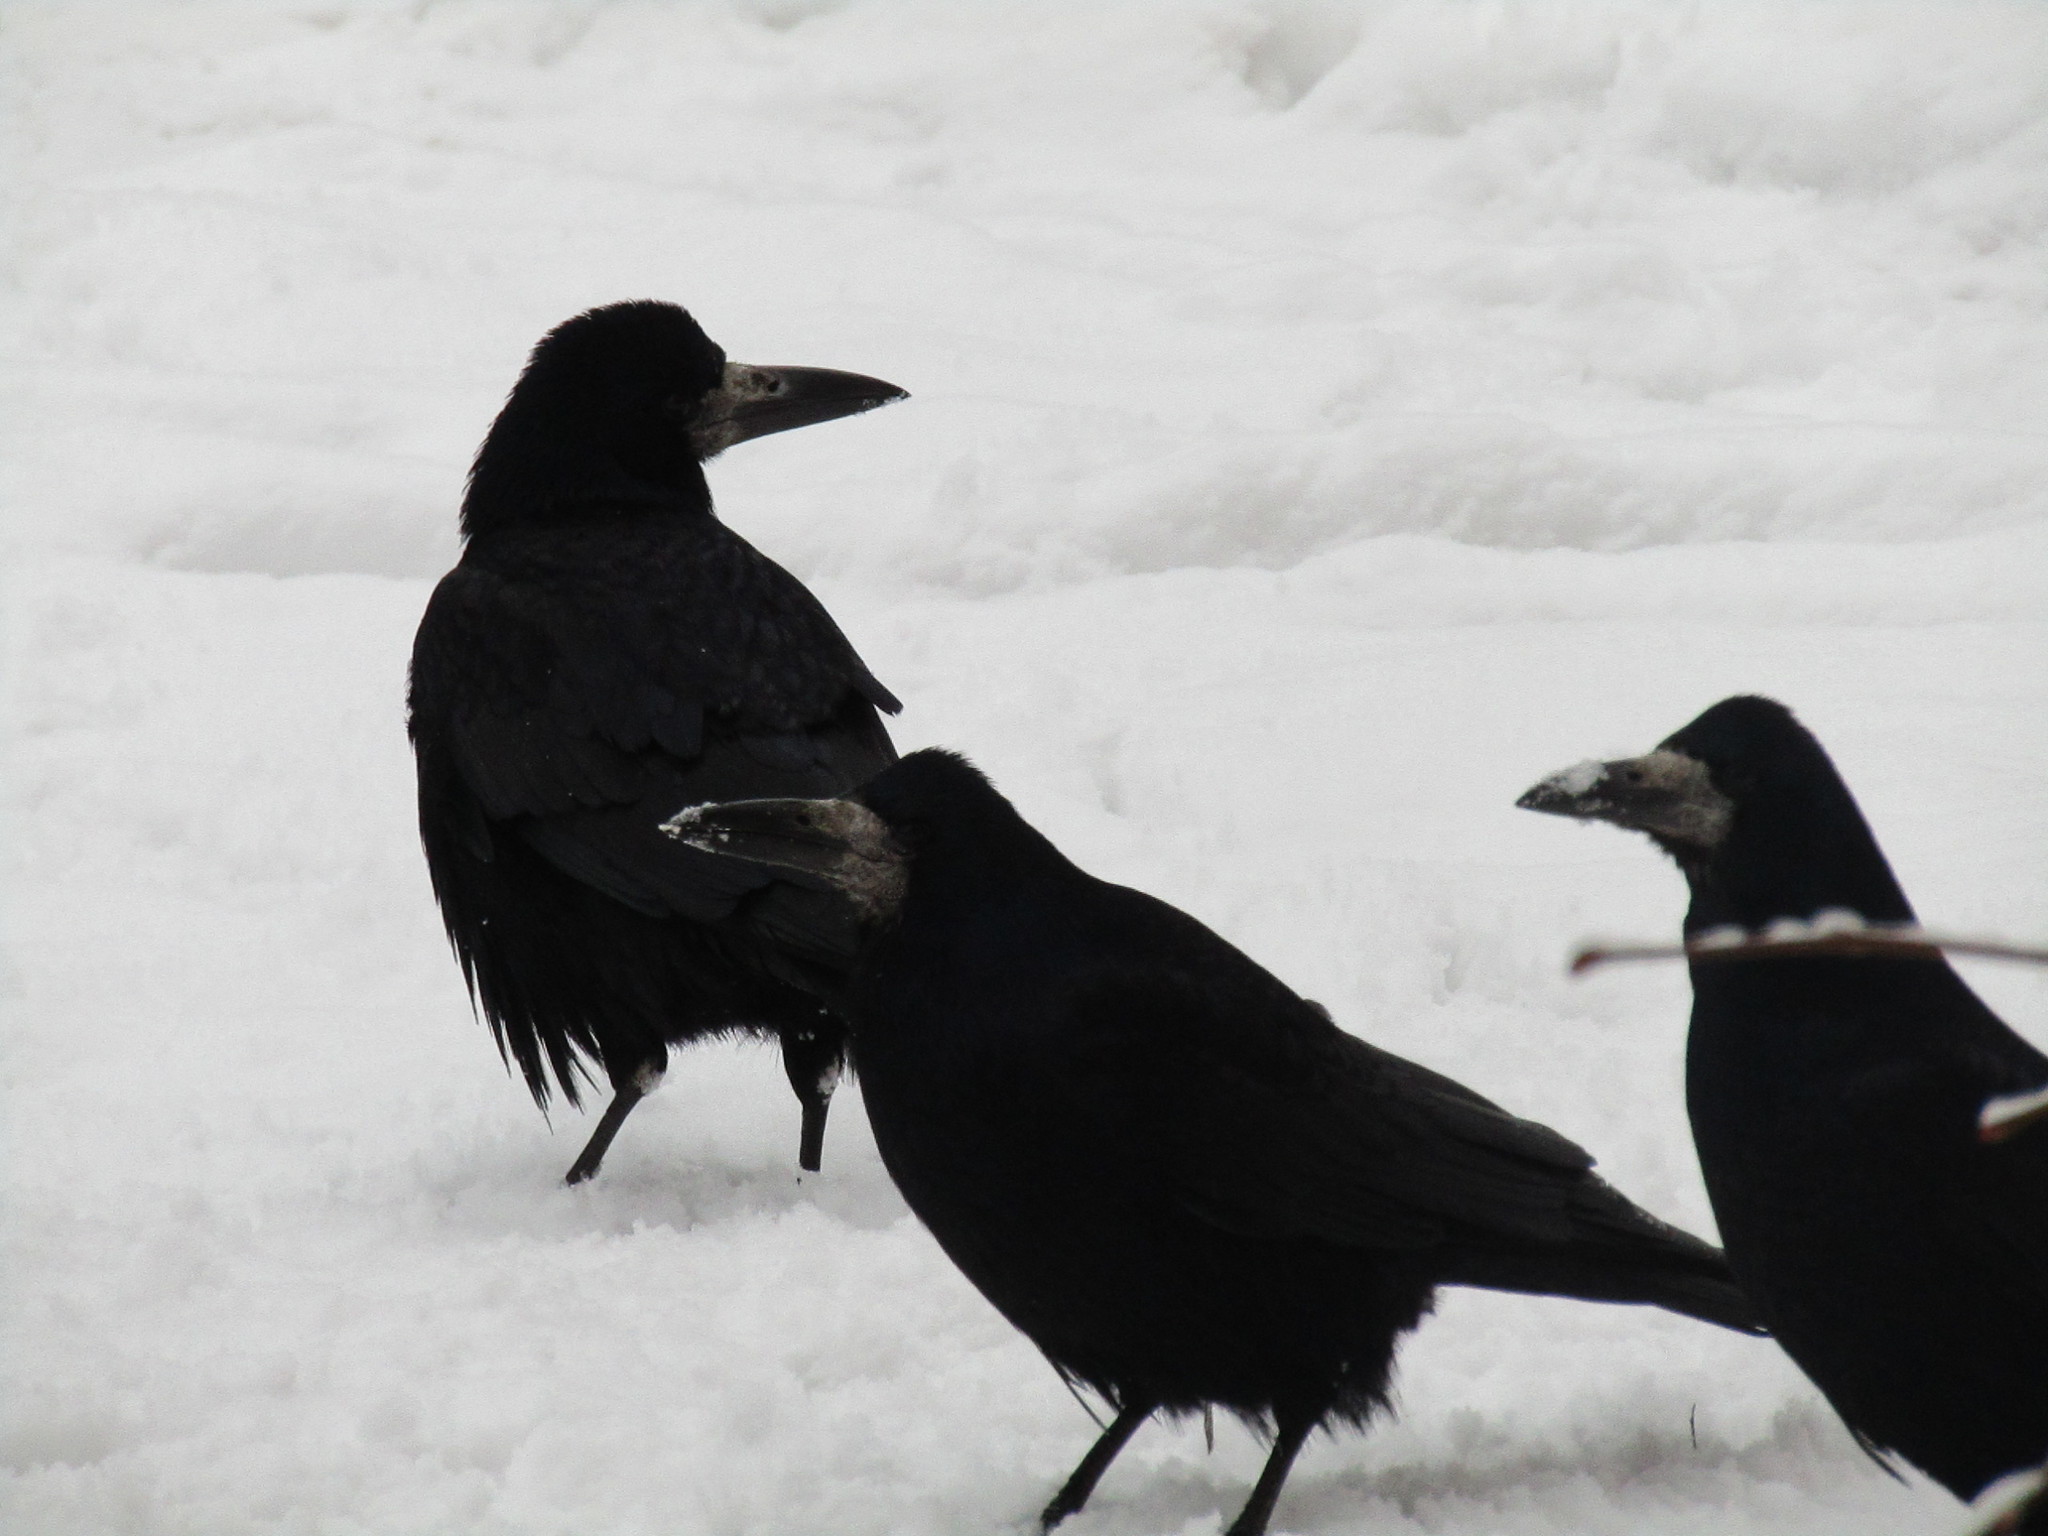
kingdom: Animalia
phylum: Chordata
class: Aves
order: Passeriformes
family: Corvidae
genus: Corvus
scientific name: Corvus frugilegus
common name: Rook
